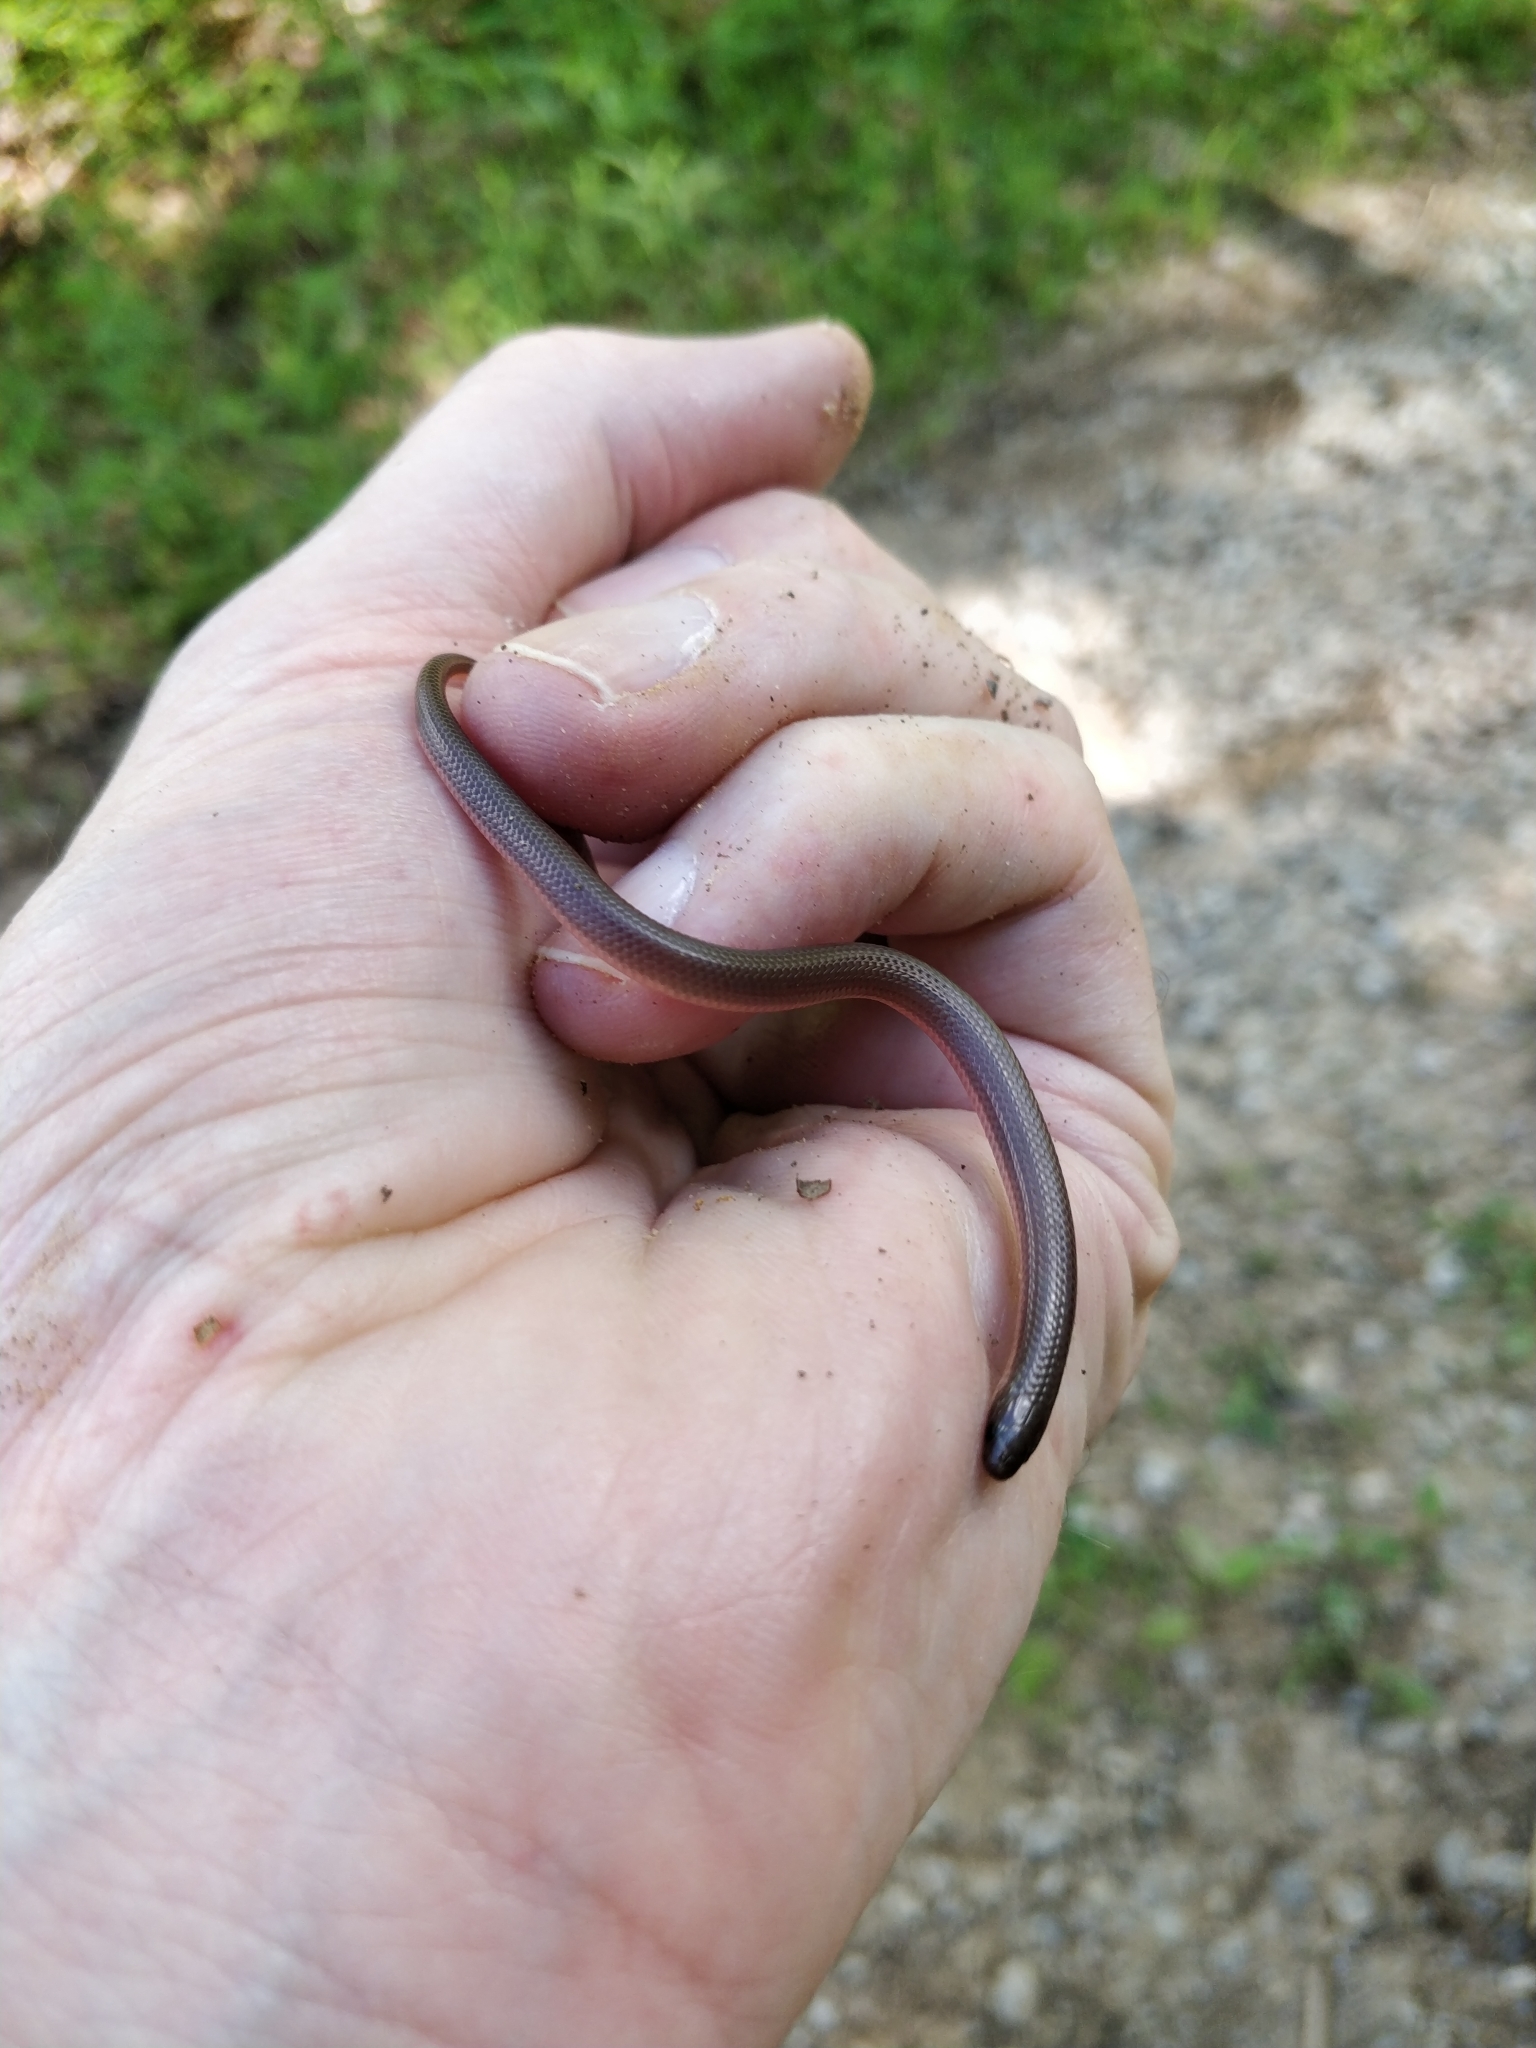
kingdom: Animalia
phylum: Chordata
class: Squamata
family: Colubridae
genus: Carphophis
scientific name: Carphophis amoenus
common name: Eastern worm snake
